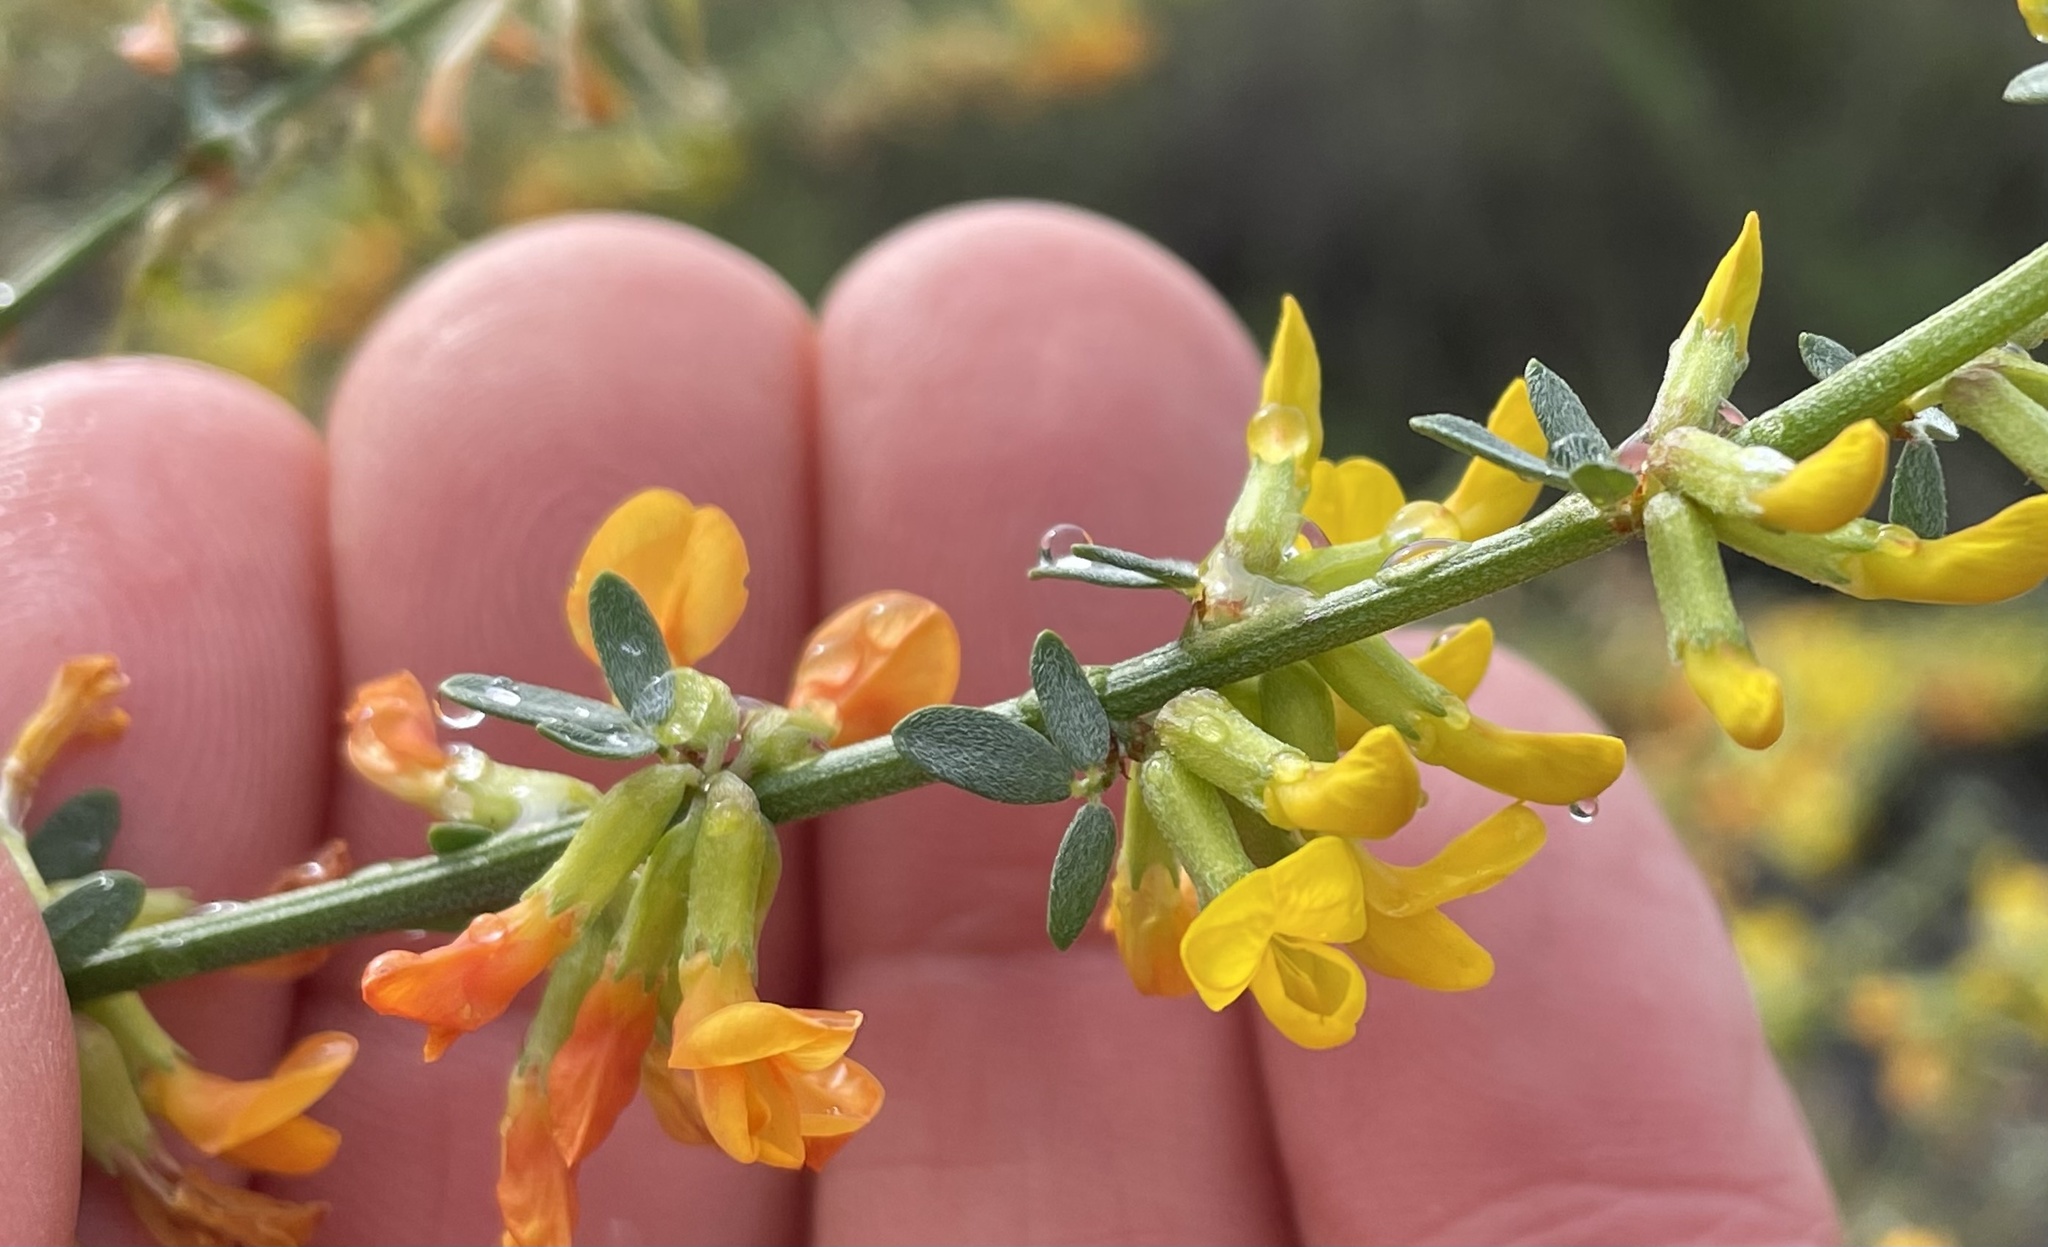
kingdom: Plantae
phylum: Tracheophyta
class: Magnoliopsida
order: Fabales
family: Fabaceae
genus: Acmispon
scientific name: Acmispon glaber
